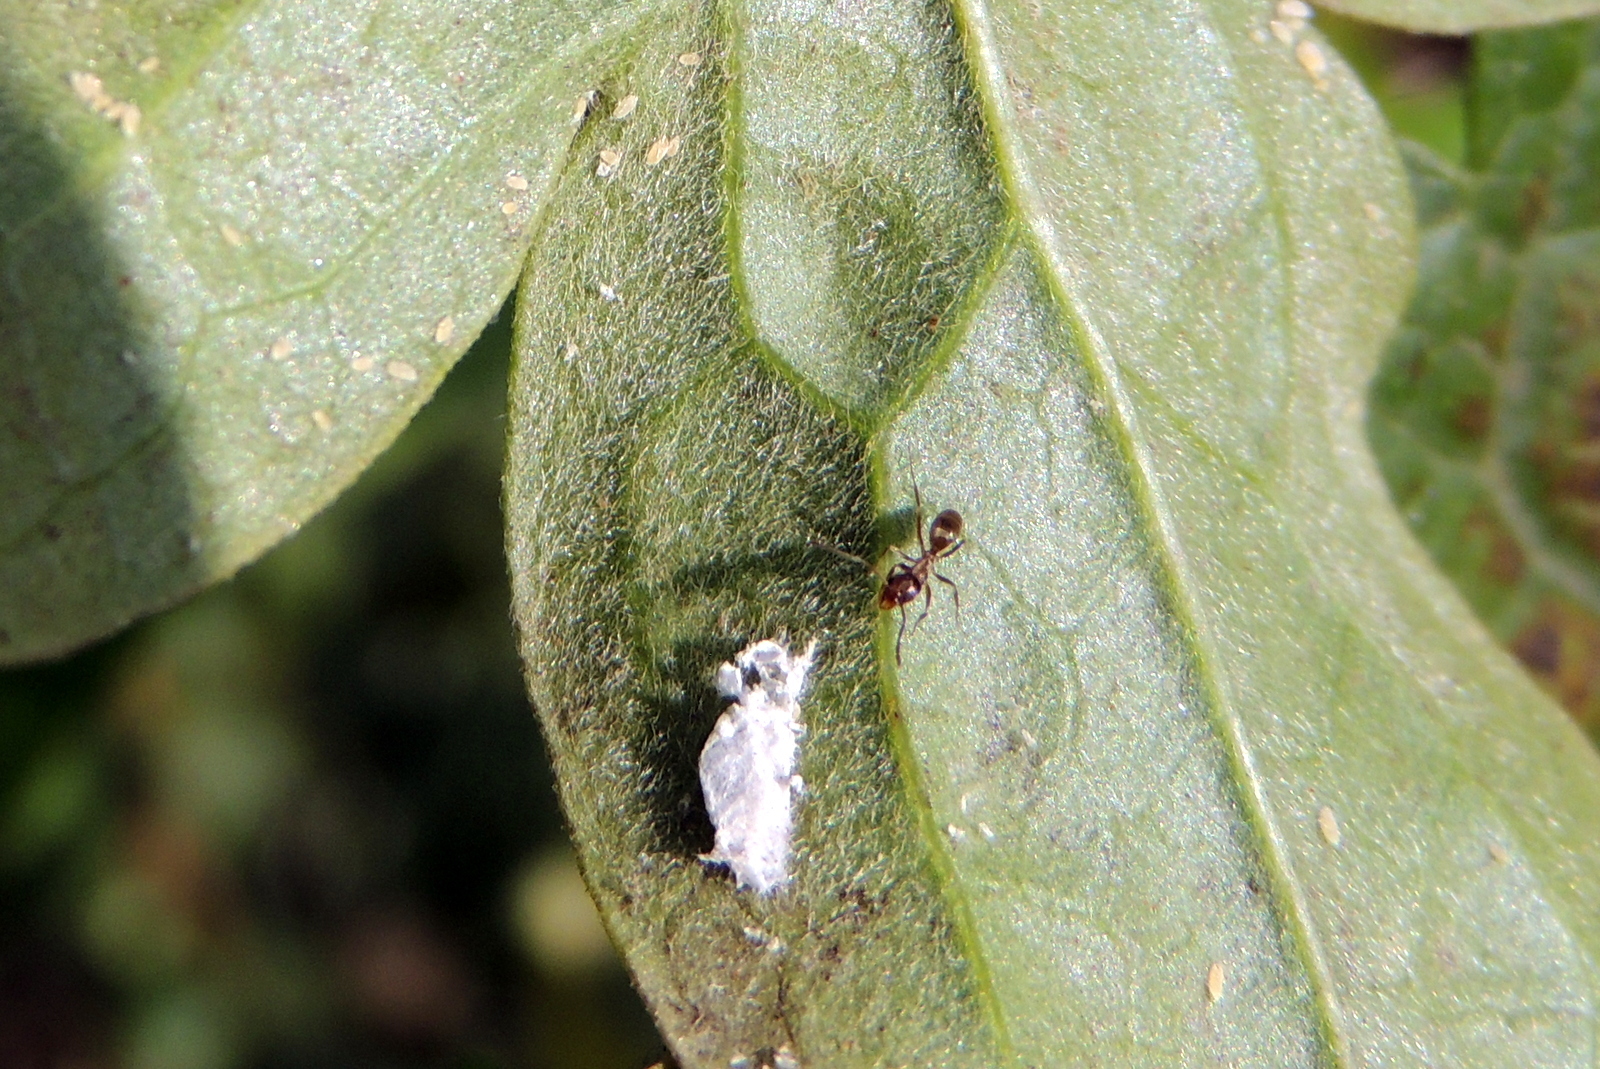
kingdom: Animalia
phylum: Arthropoda
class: Insecta
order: Hymenoptera
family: Formicidae
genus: Linepithema
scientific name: Linepithema humile
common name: Argentine ant
